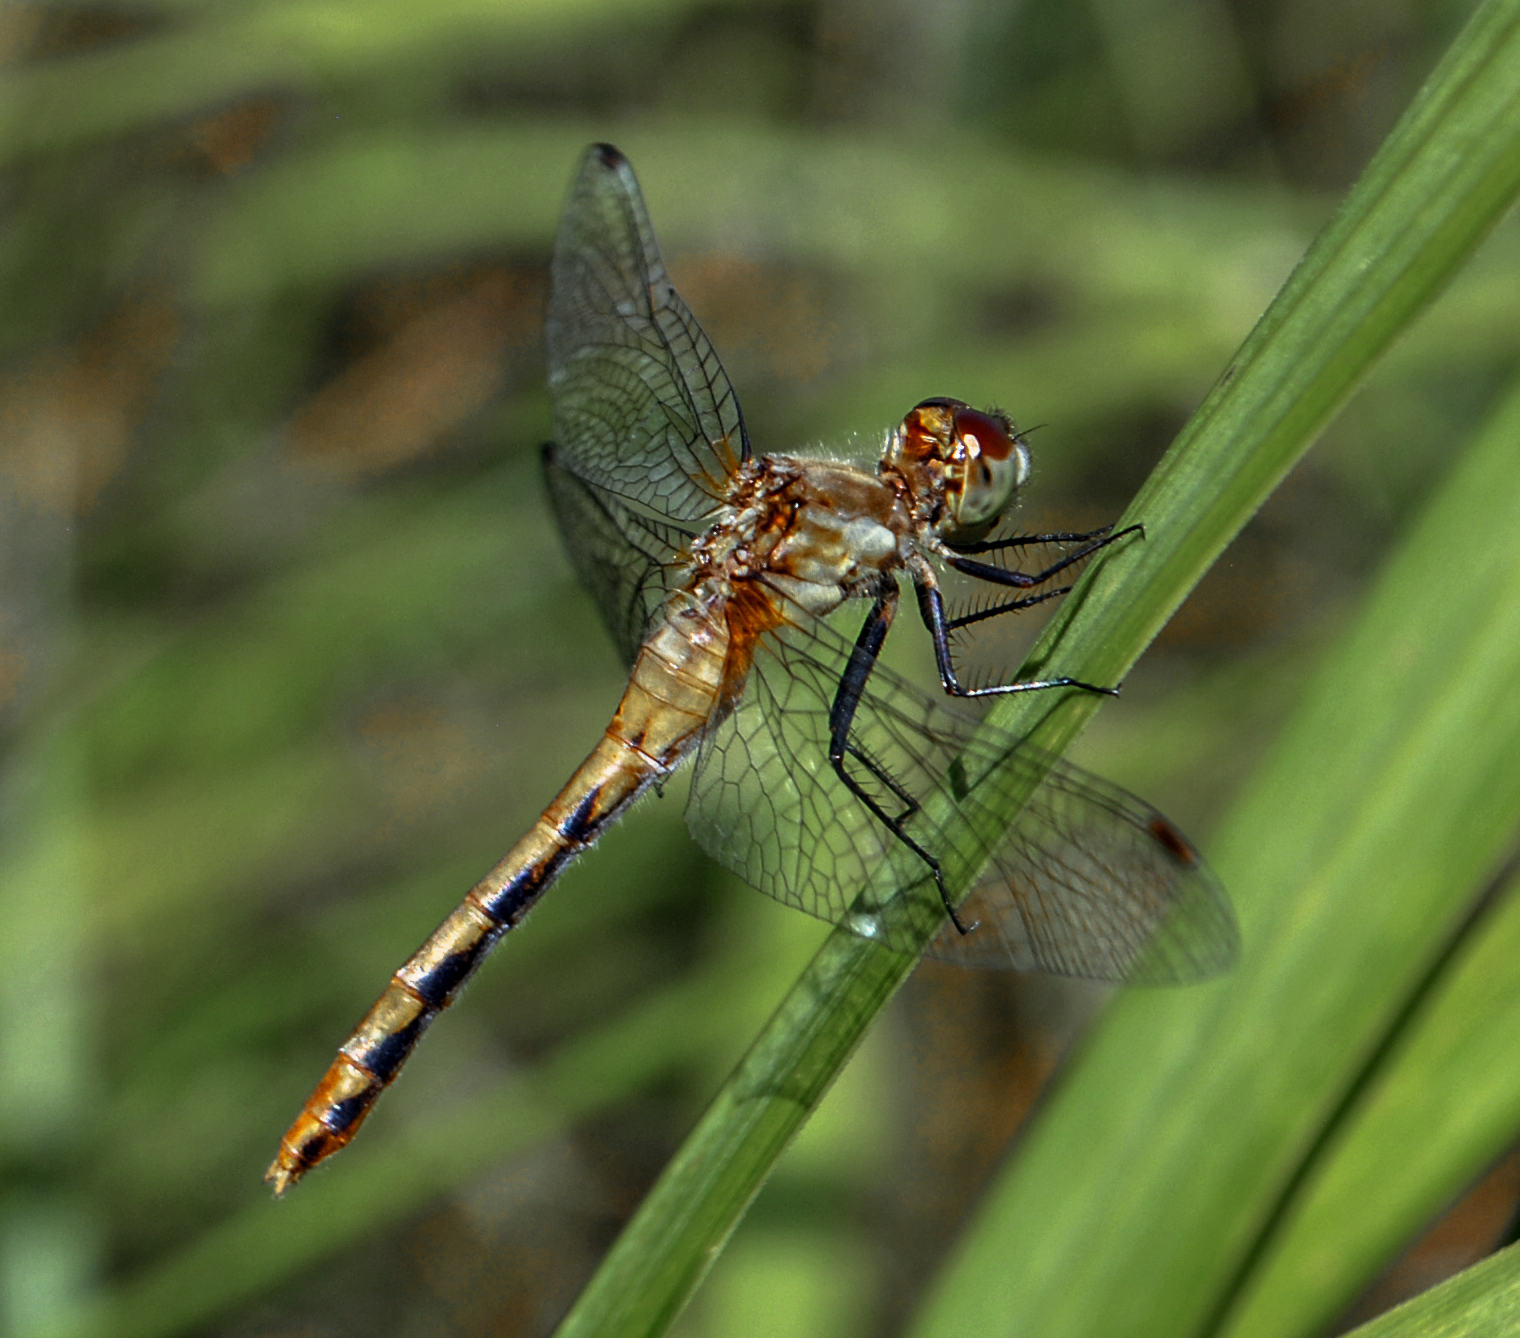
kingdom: Animalia
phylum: Arthropoda
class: Insecta
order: Odonata
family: Libellulidae
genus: Sympetrum
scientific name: Sympetrum obtrusum
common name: White-faced meadowhawk
